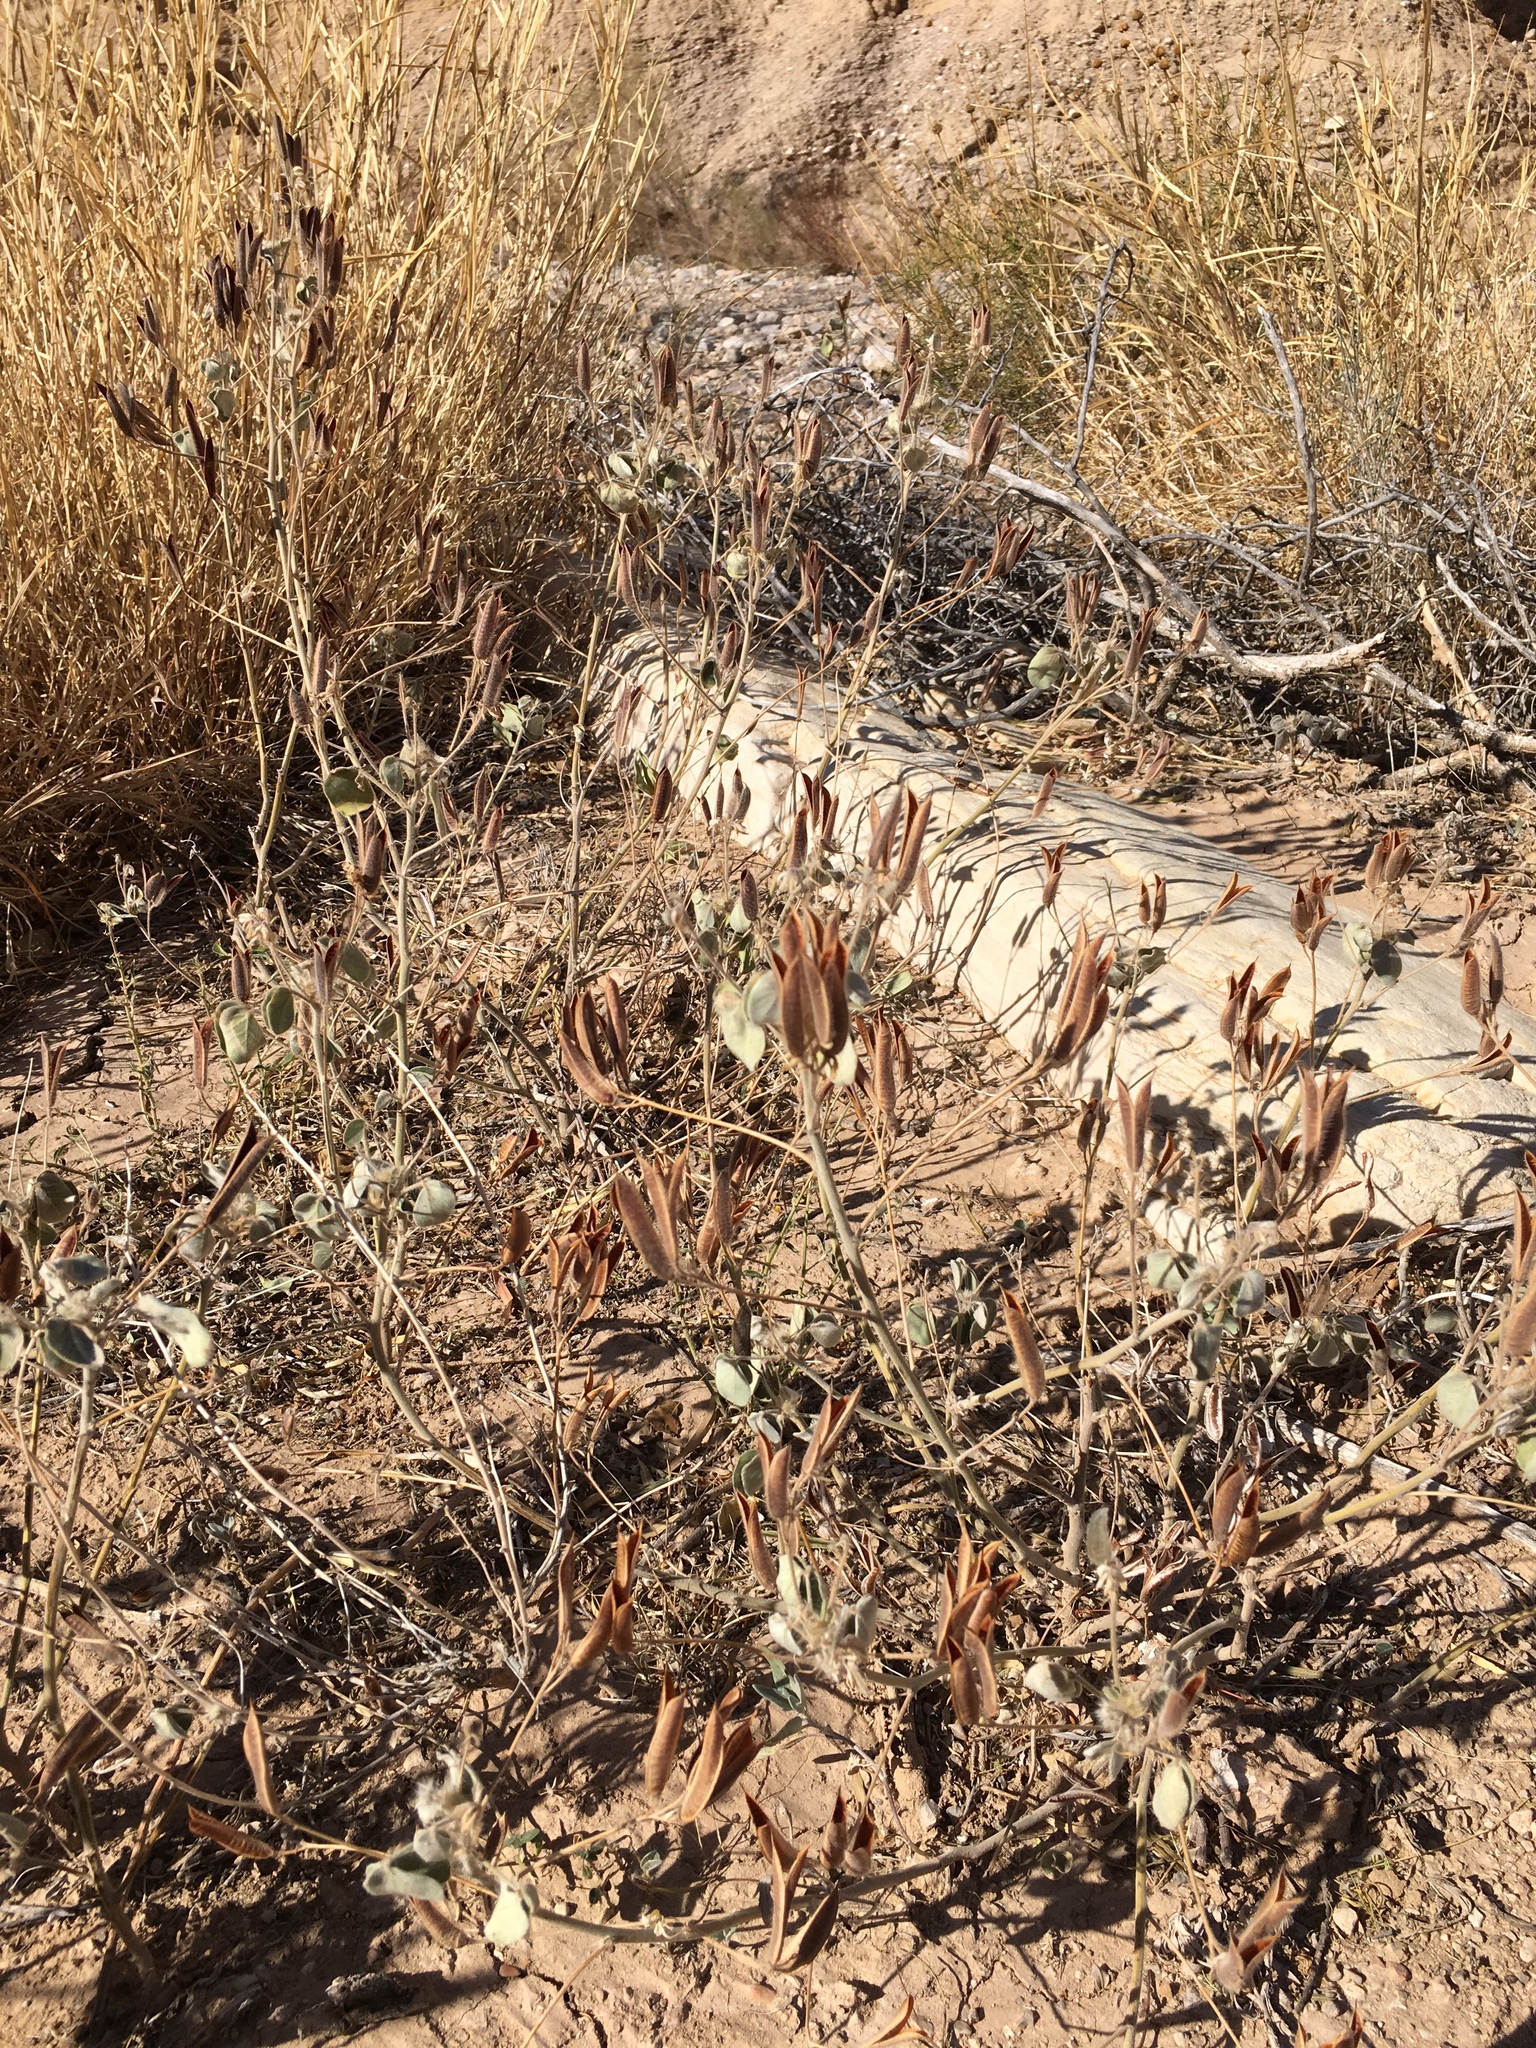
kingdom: Plantae
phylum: Tracheophyta
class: Magnoliopsida
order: Fabales
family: Fabaceae
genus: Senna
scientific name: Senna pilosior
